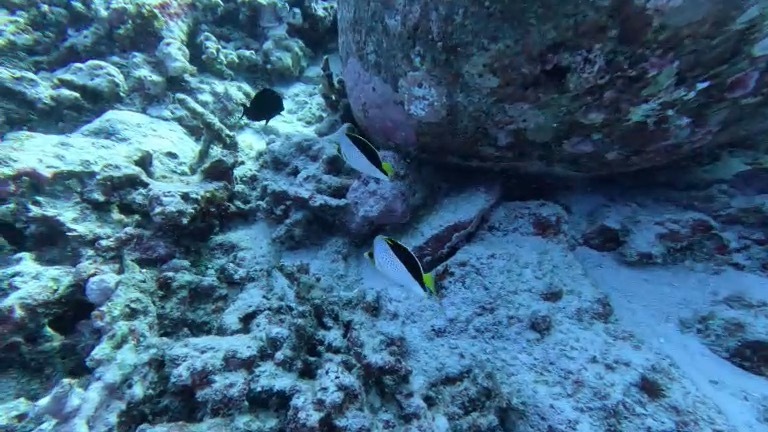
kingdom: Animalia
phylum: Chordata
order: Perciformes
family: Chaetodontidae
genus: Chaetodon
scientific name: Chaetodon tinkeri
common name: Tinker's butterflyfish
